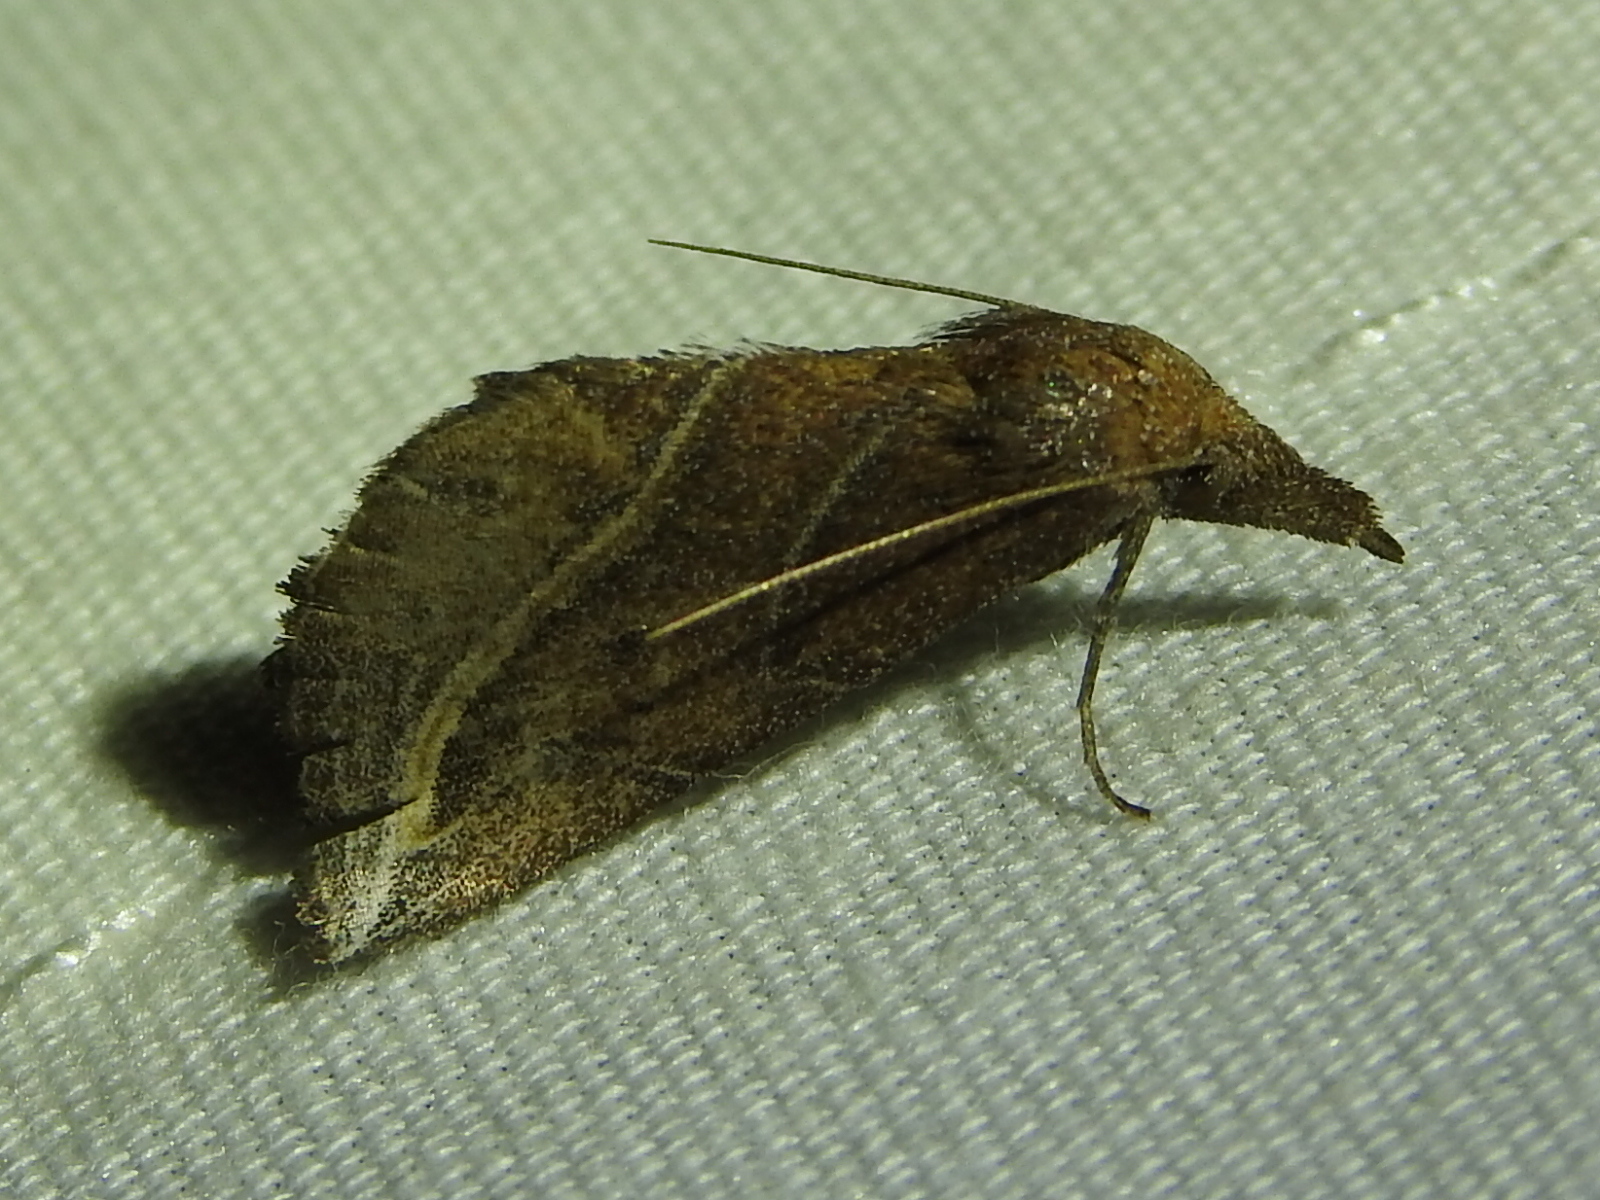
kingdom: Animalia
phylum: Arthropoda
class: Insecta
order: Lepidoptera
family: Erebidae
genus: Phyprosopus
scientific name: Phyprosopus callitrichoides
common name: Curved-lined owlet
